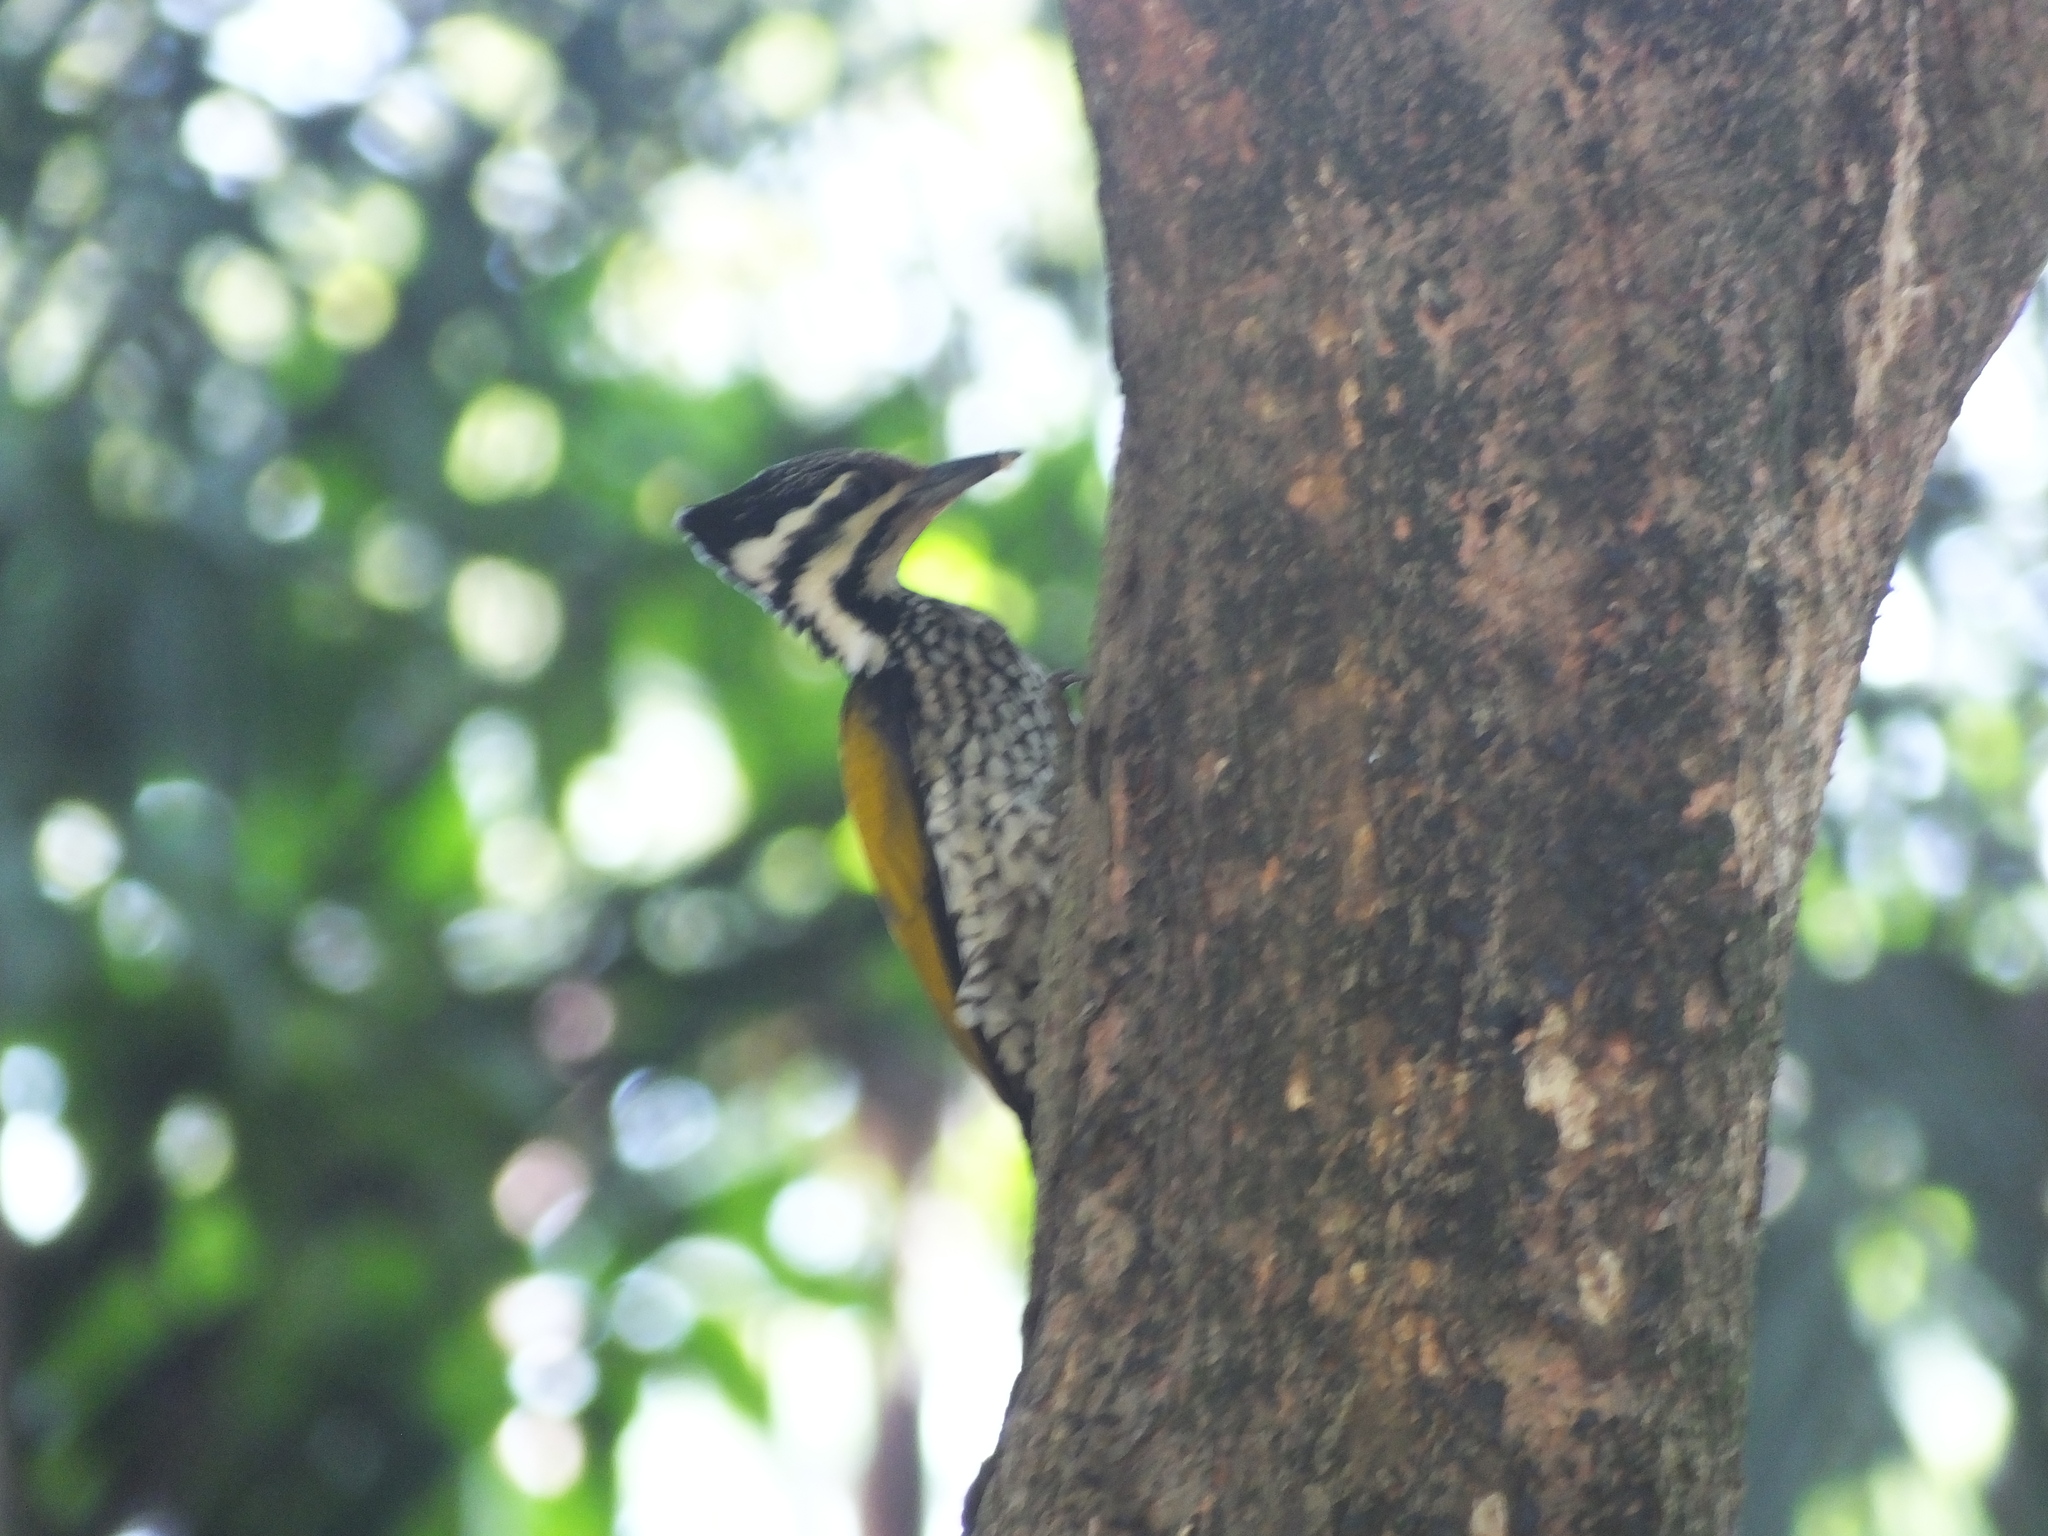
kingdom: Animalia
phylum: Chordata
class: Aves
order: Piciformes
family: Picidae
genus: Dinopium
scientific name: Dinopium javanense
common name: Common flameback
